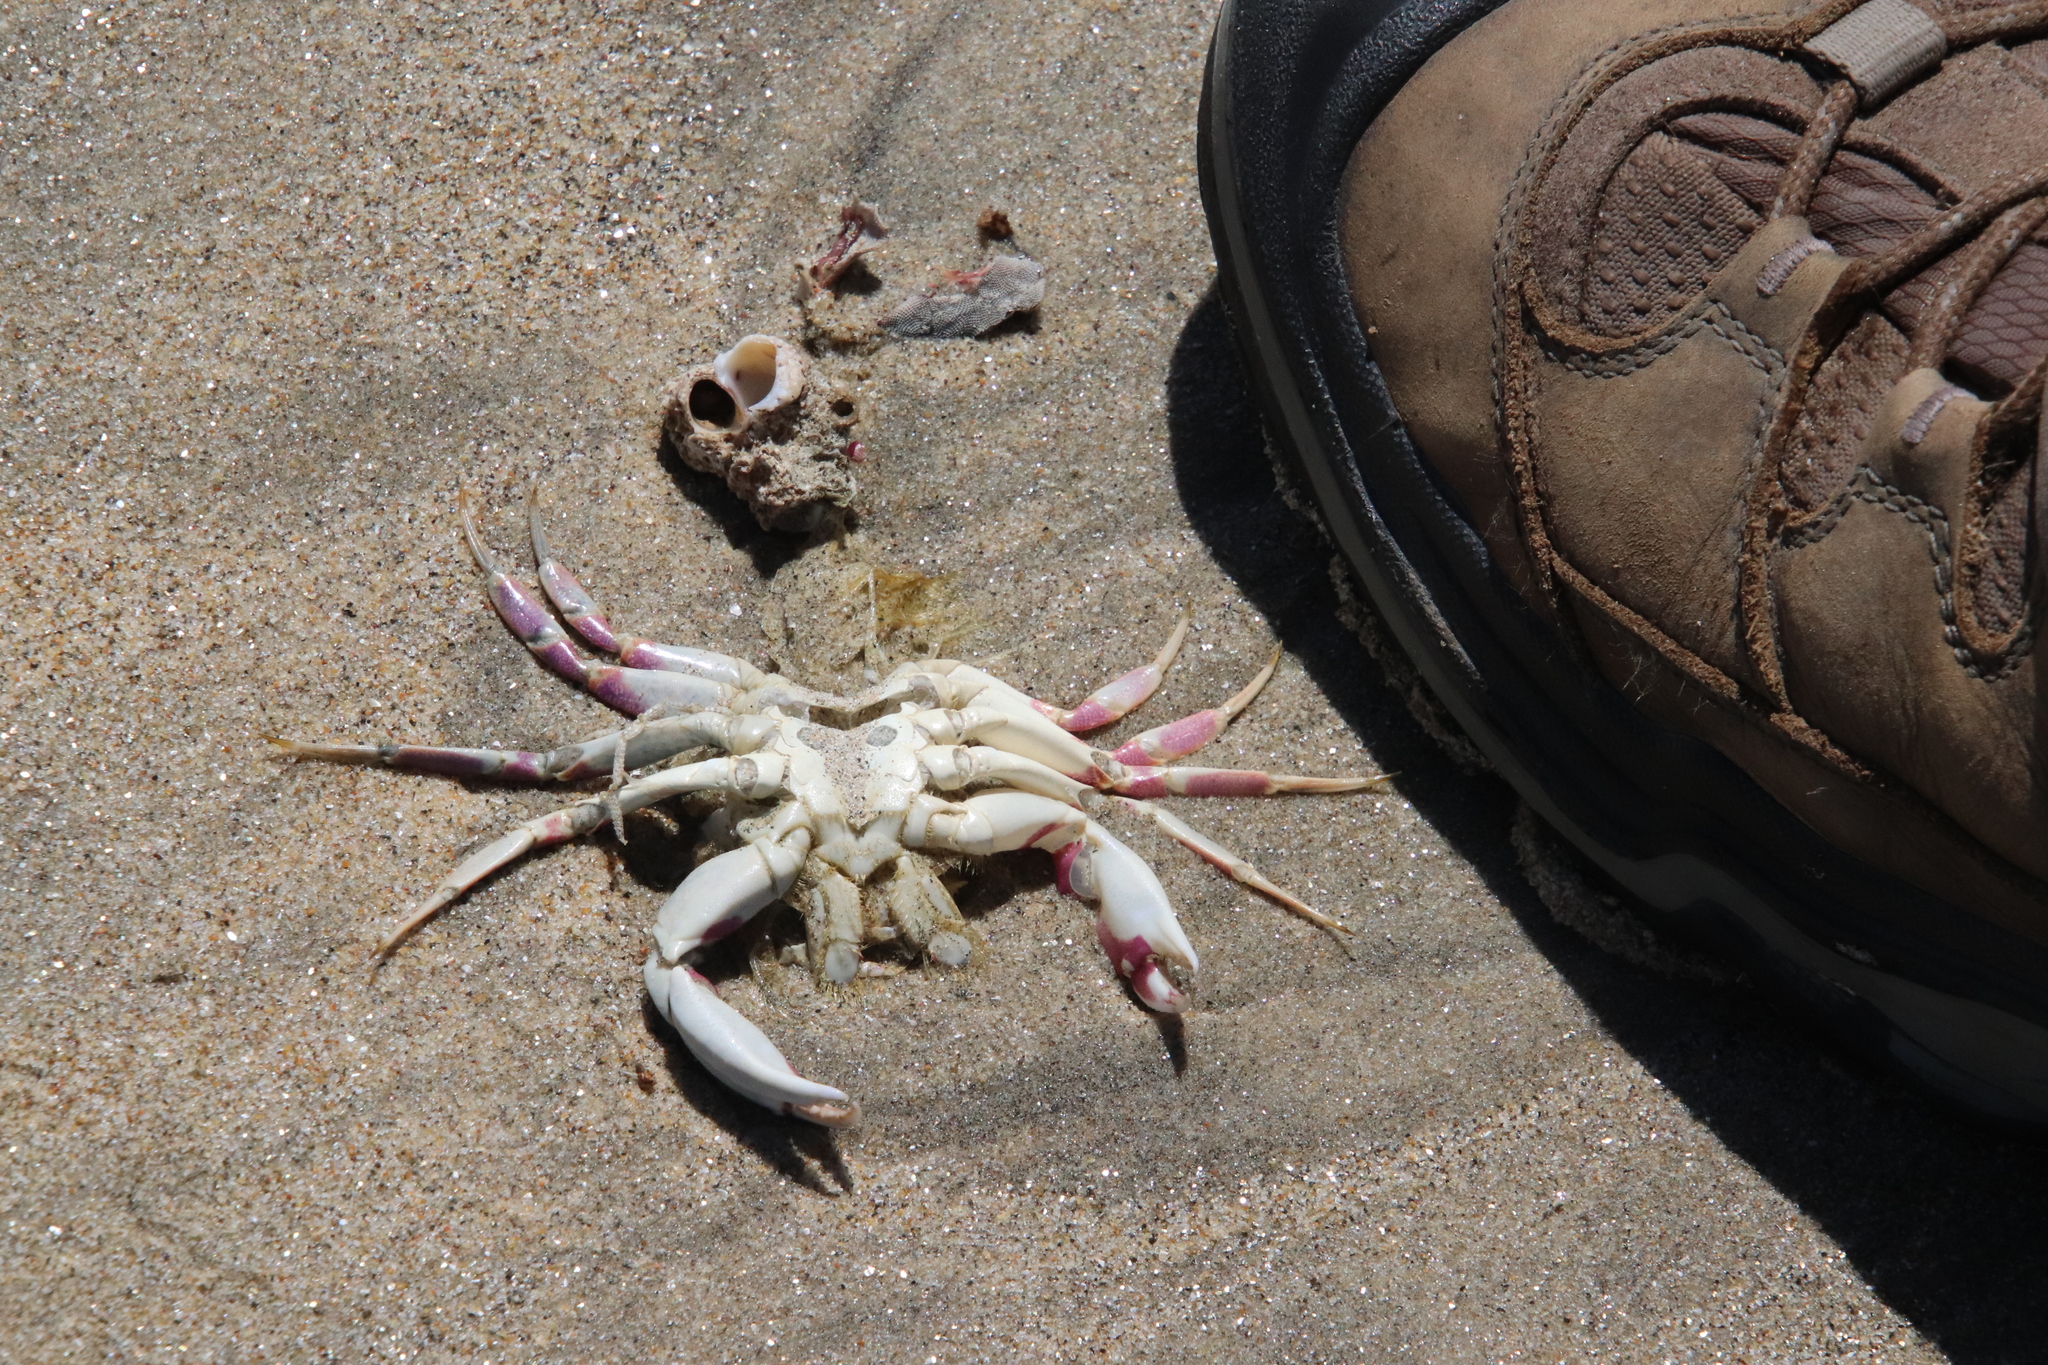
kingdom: Animalia
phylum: Arthropoda
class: Malacostraca
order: Decapoda
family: Cancridae
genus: Metacarcinus
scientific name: Metacarcinus gracilis
